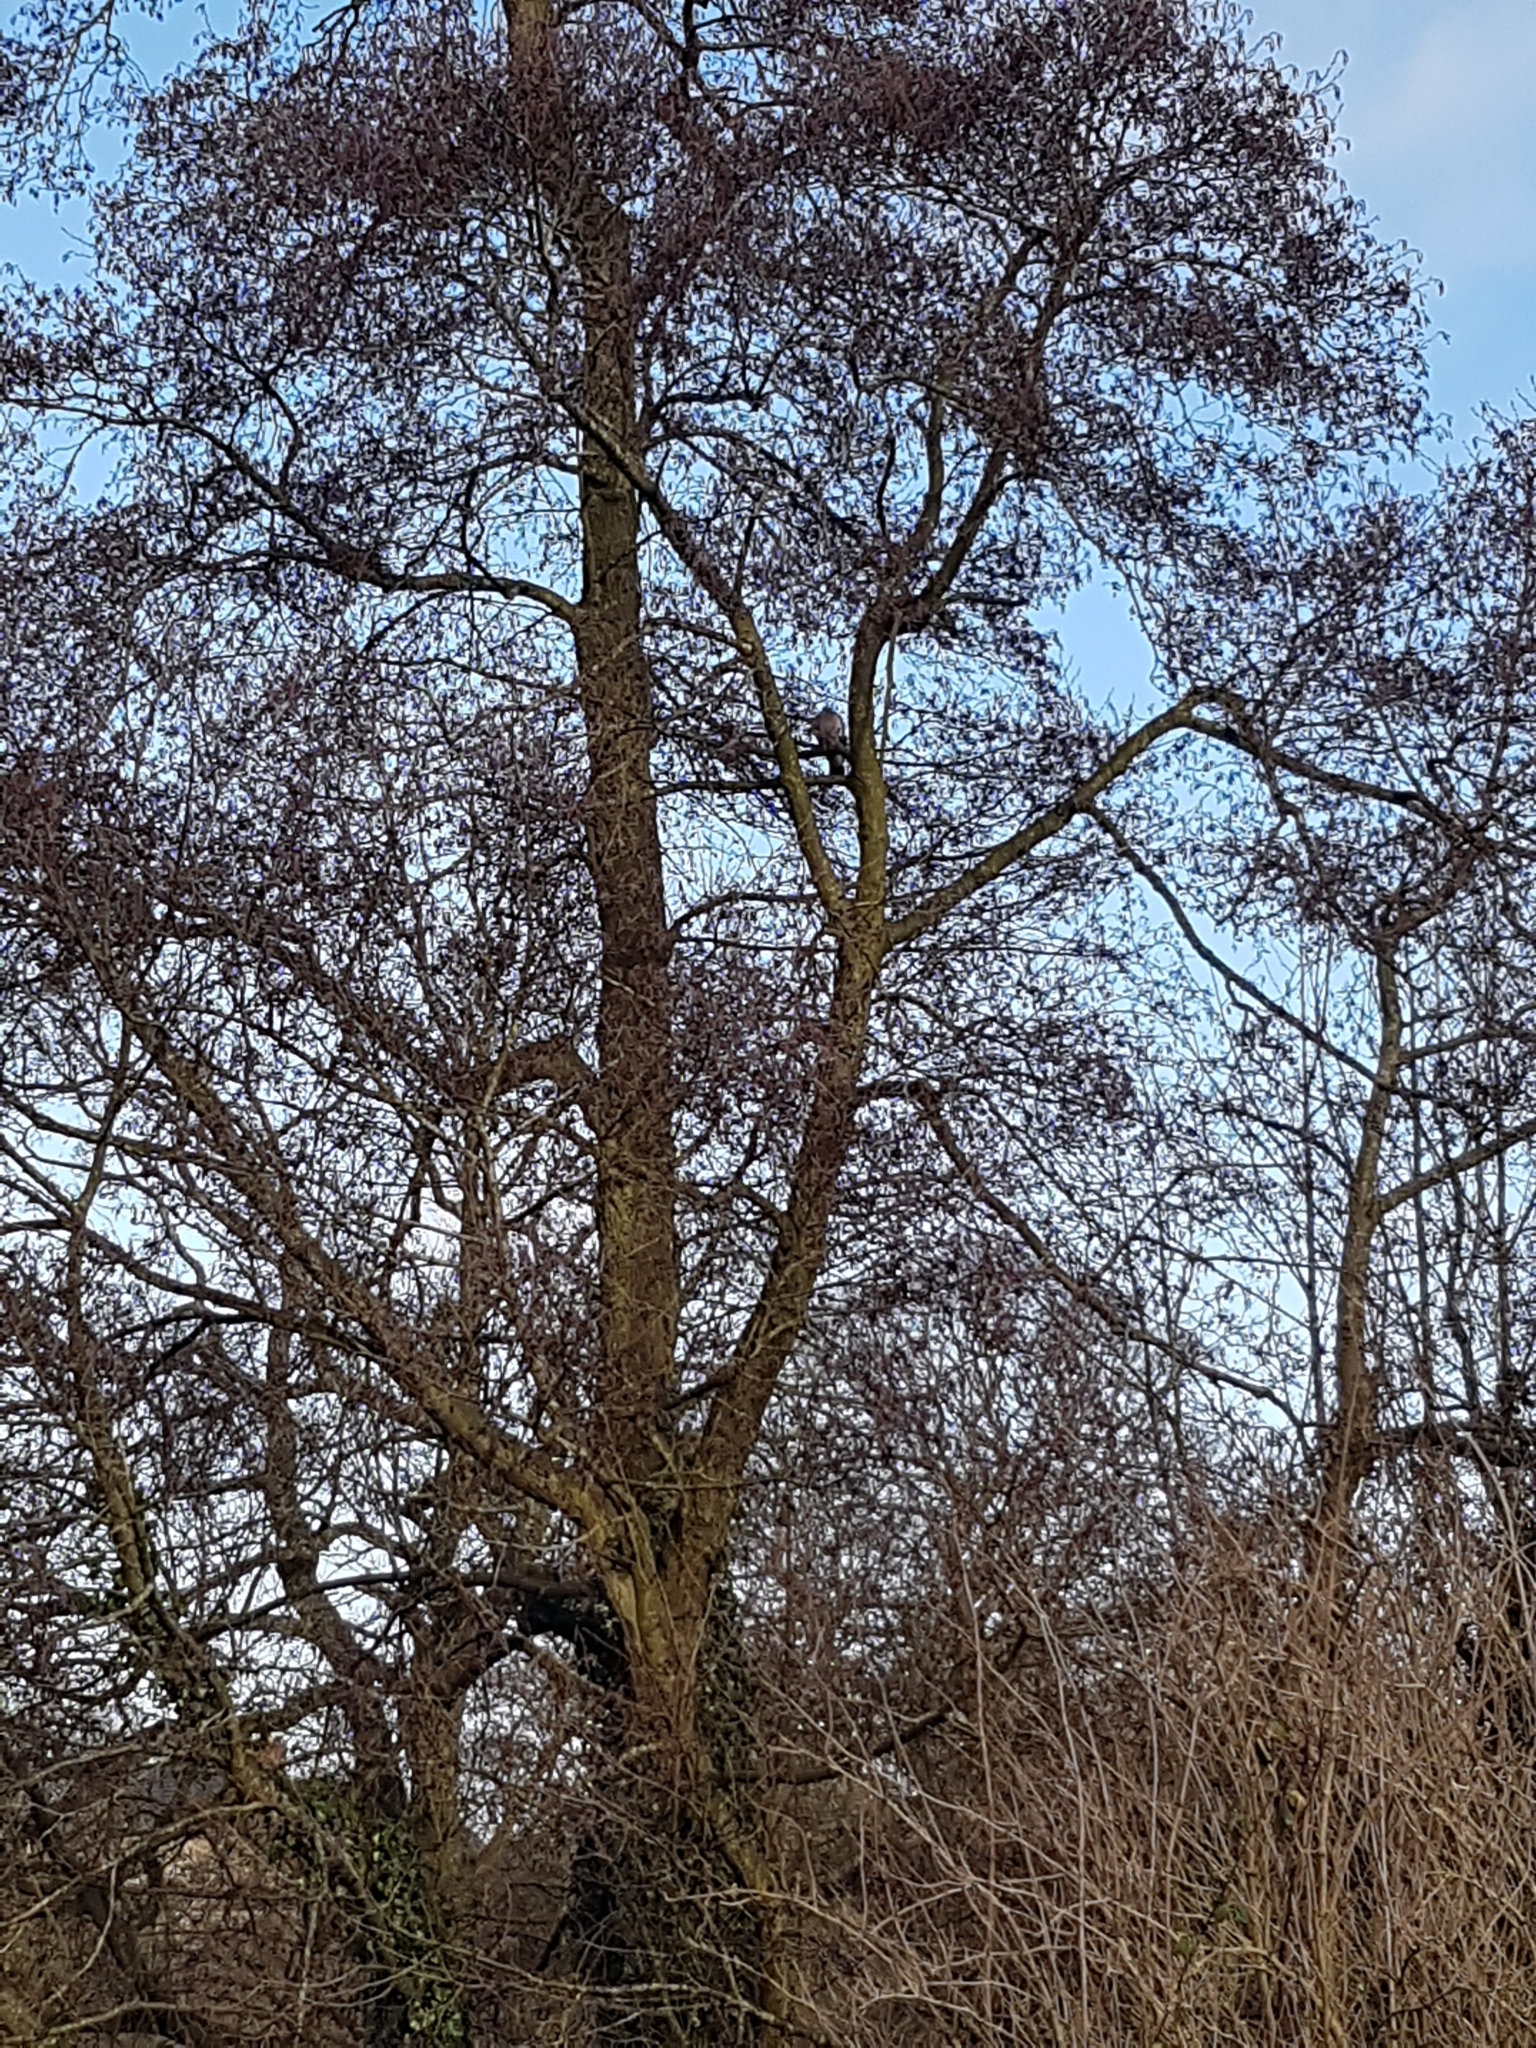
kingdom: Animalia
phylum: Chordata
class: Aves
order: Columbiformes
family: Columbidae
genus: Columba
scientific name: Columba palumbus
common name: Common wood pigeon
